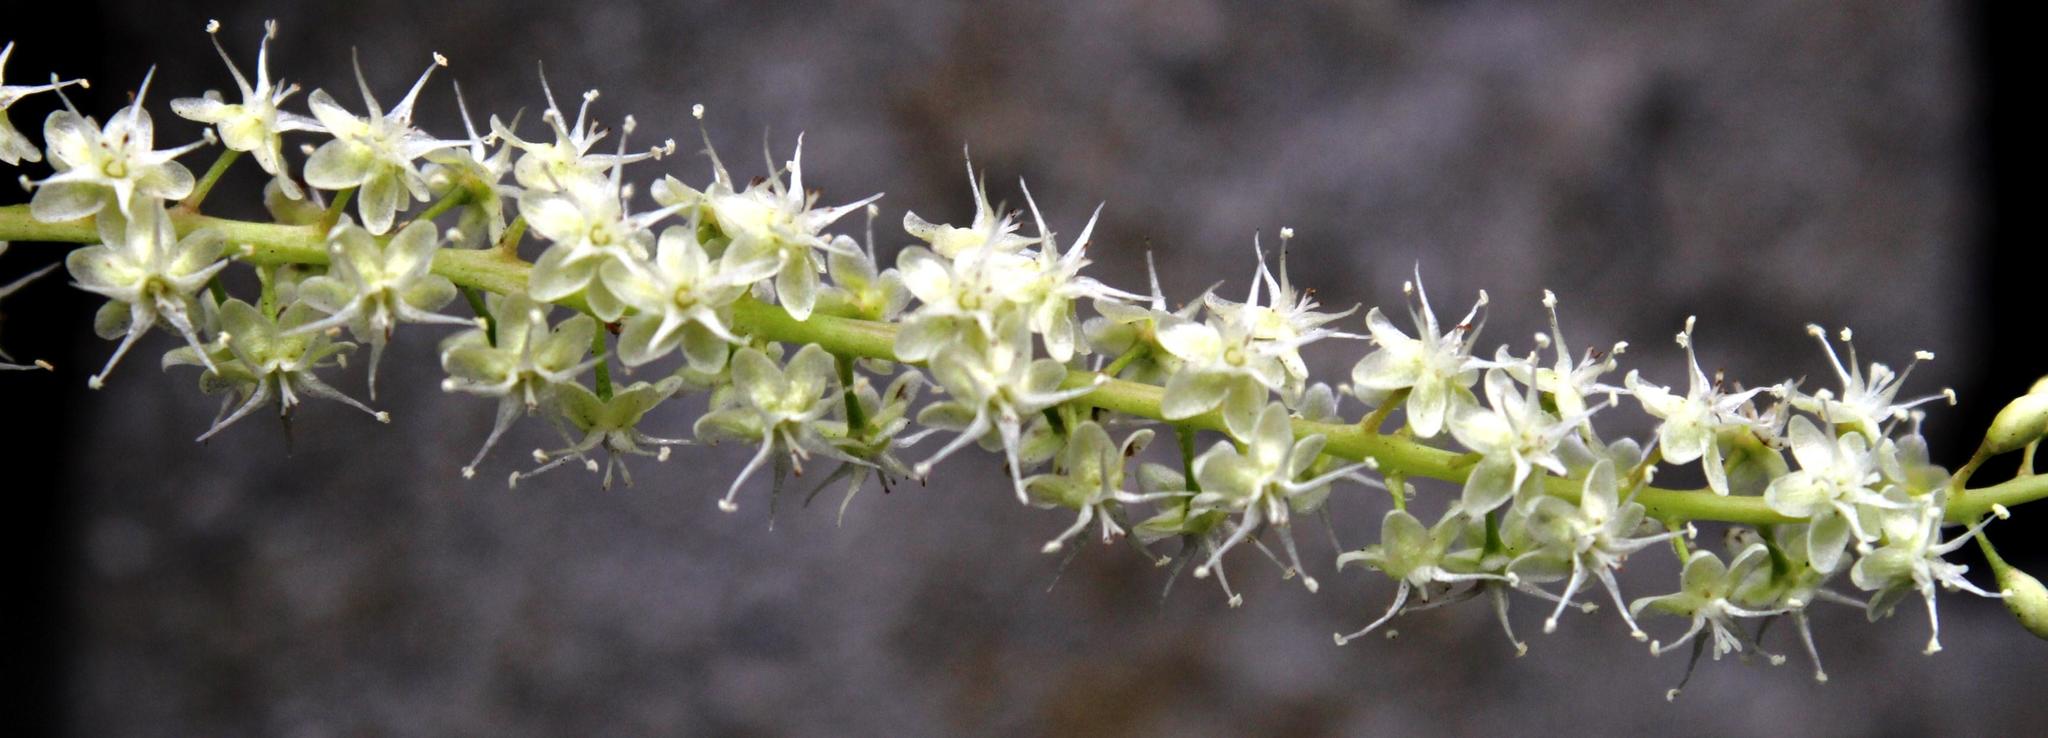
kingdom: Plantae
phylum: Tracheophyta
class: Magnoliopsida
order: Caryophyllales
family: Basellaceae
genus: Anredera
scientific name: Anredera cordifolia
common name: Heartleaf madeiravine
